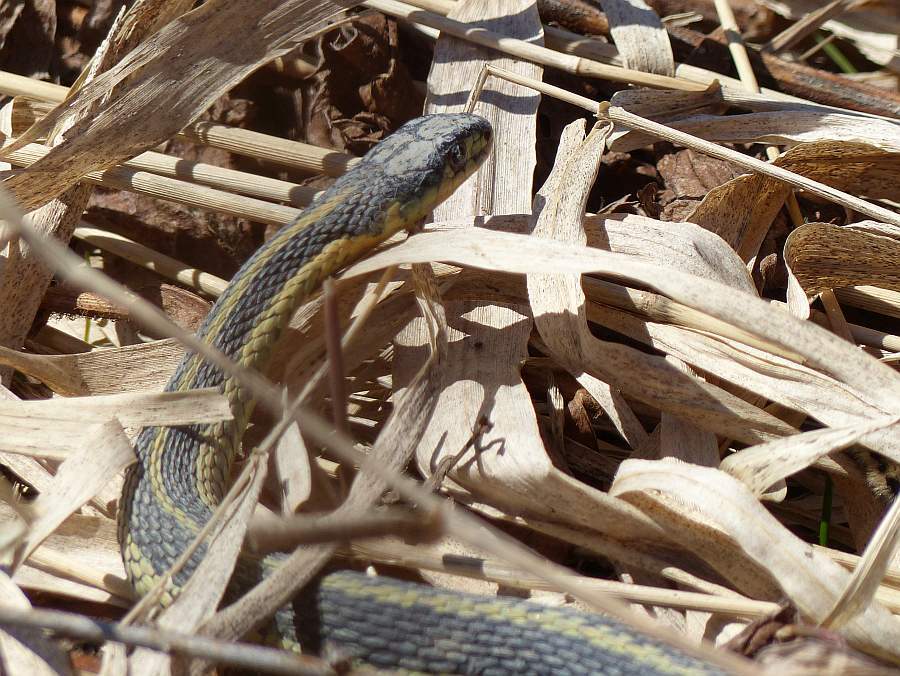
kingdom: Animalia
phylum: Chordata
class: Squamata
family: Colubridae
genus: Thamnophis
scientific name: Thamnophis sirtalis
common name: Common garter snake
